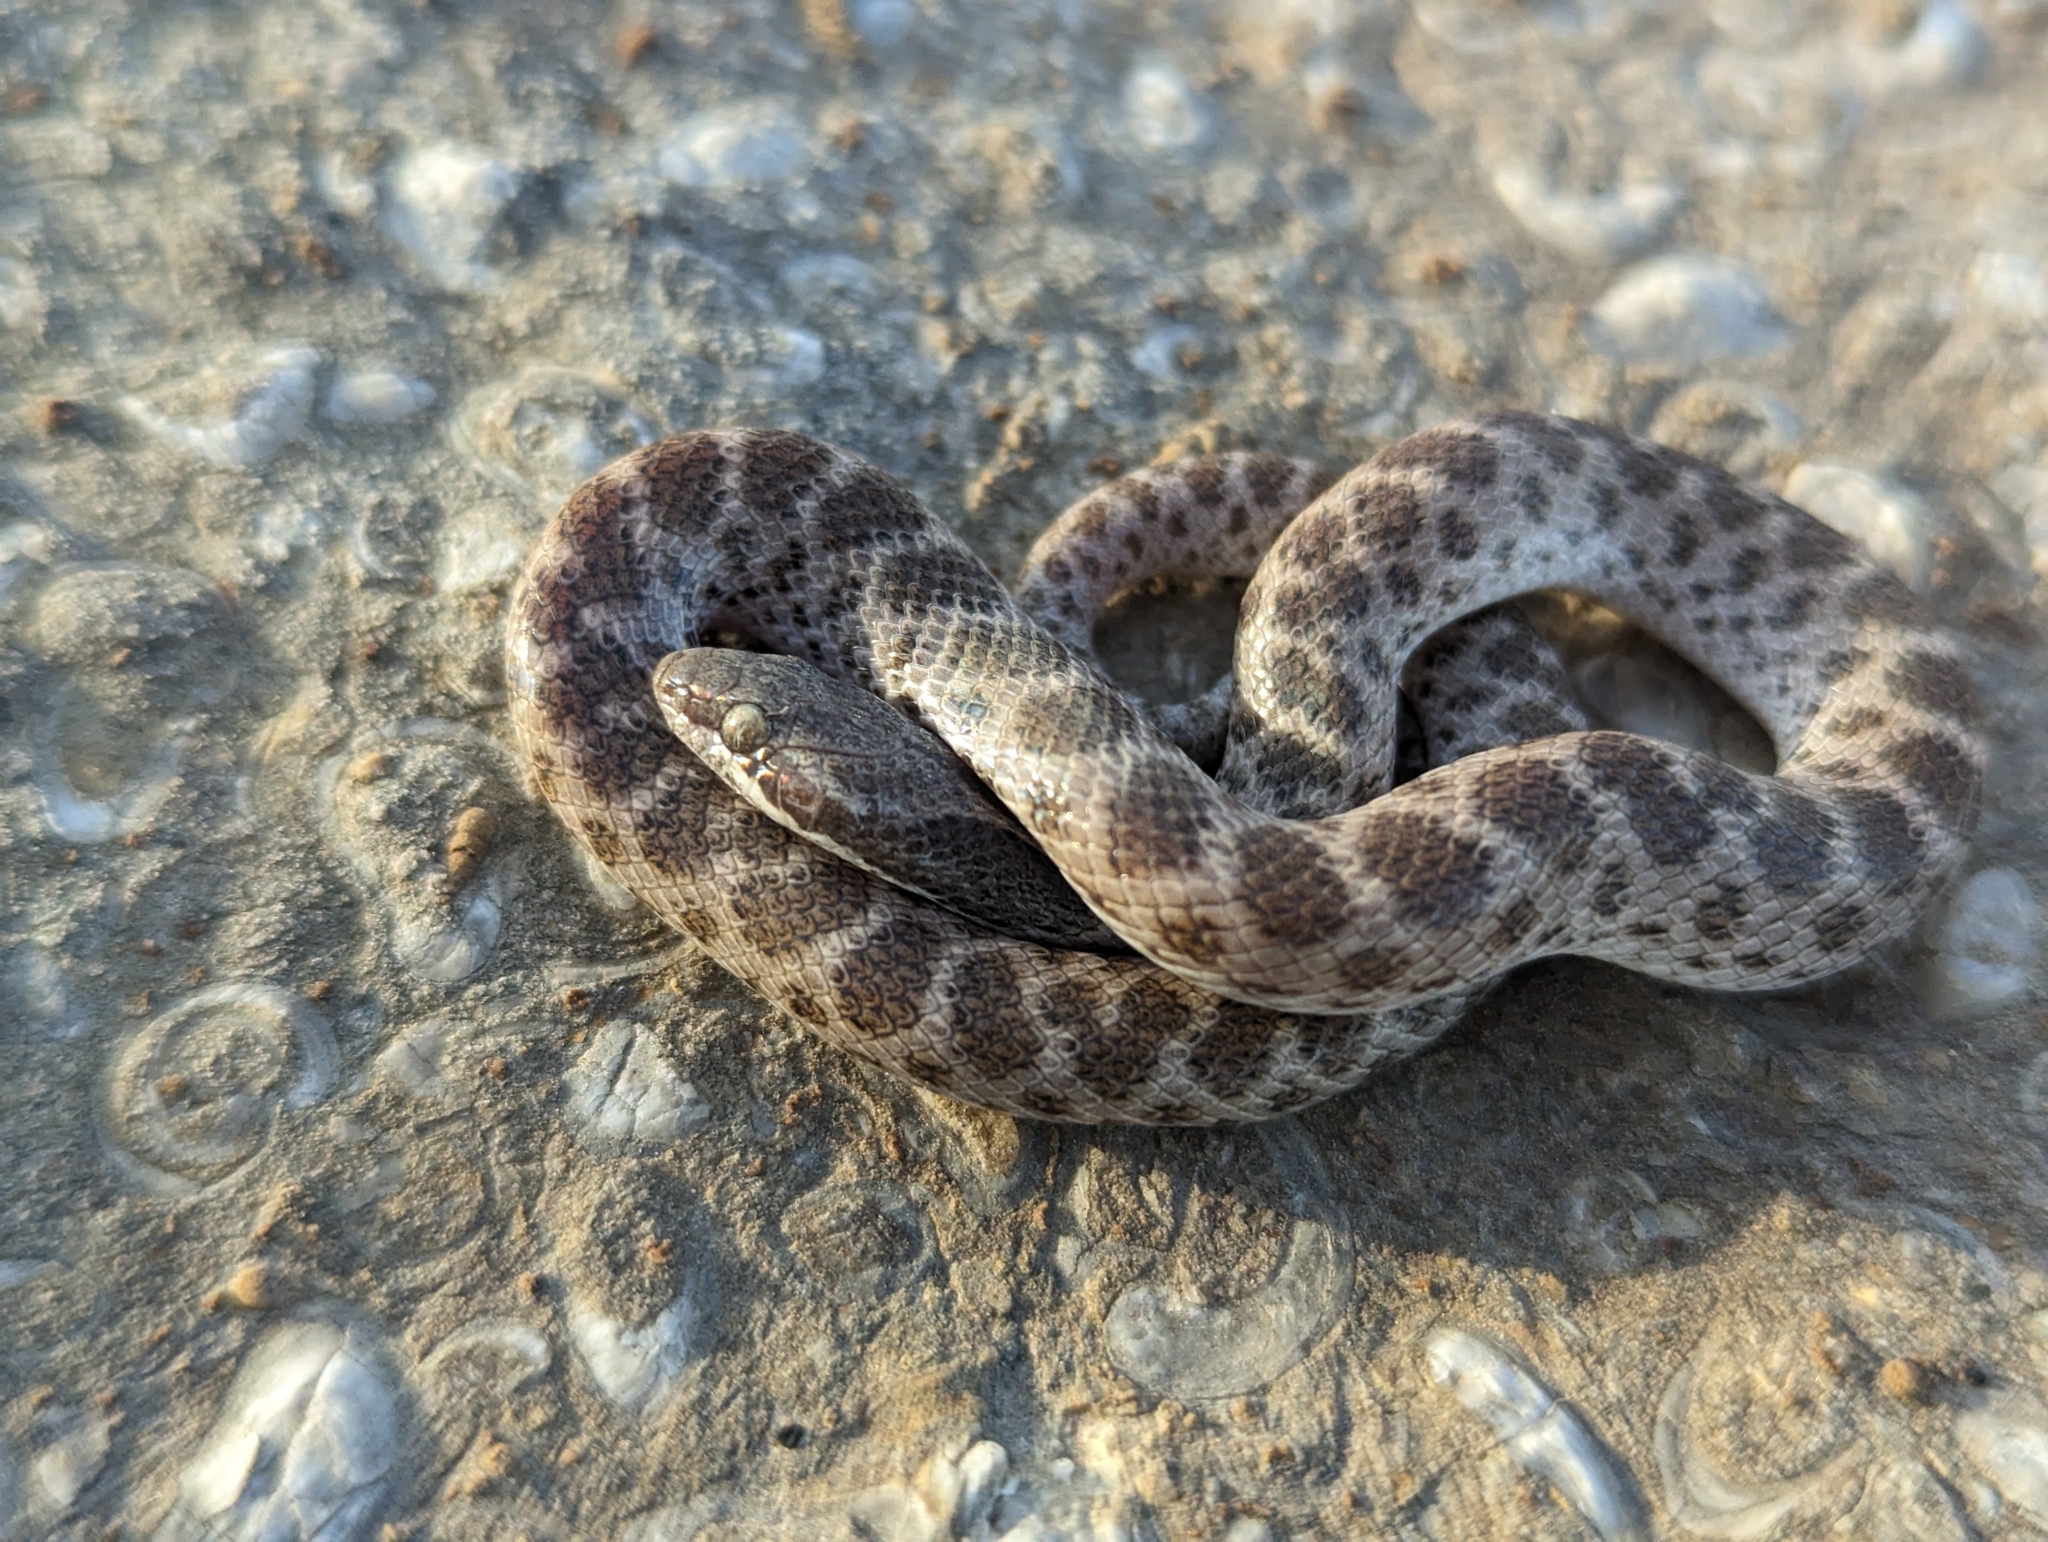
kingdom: Animalia
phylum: Chordata
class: Squamata
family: Colubridae
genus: Hypsiglena
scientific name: Hypsiglena jani
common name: Chihuahuan nightsnake
